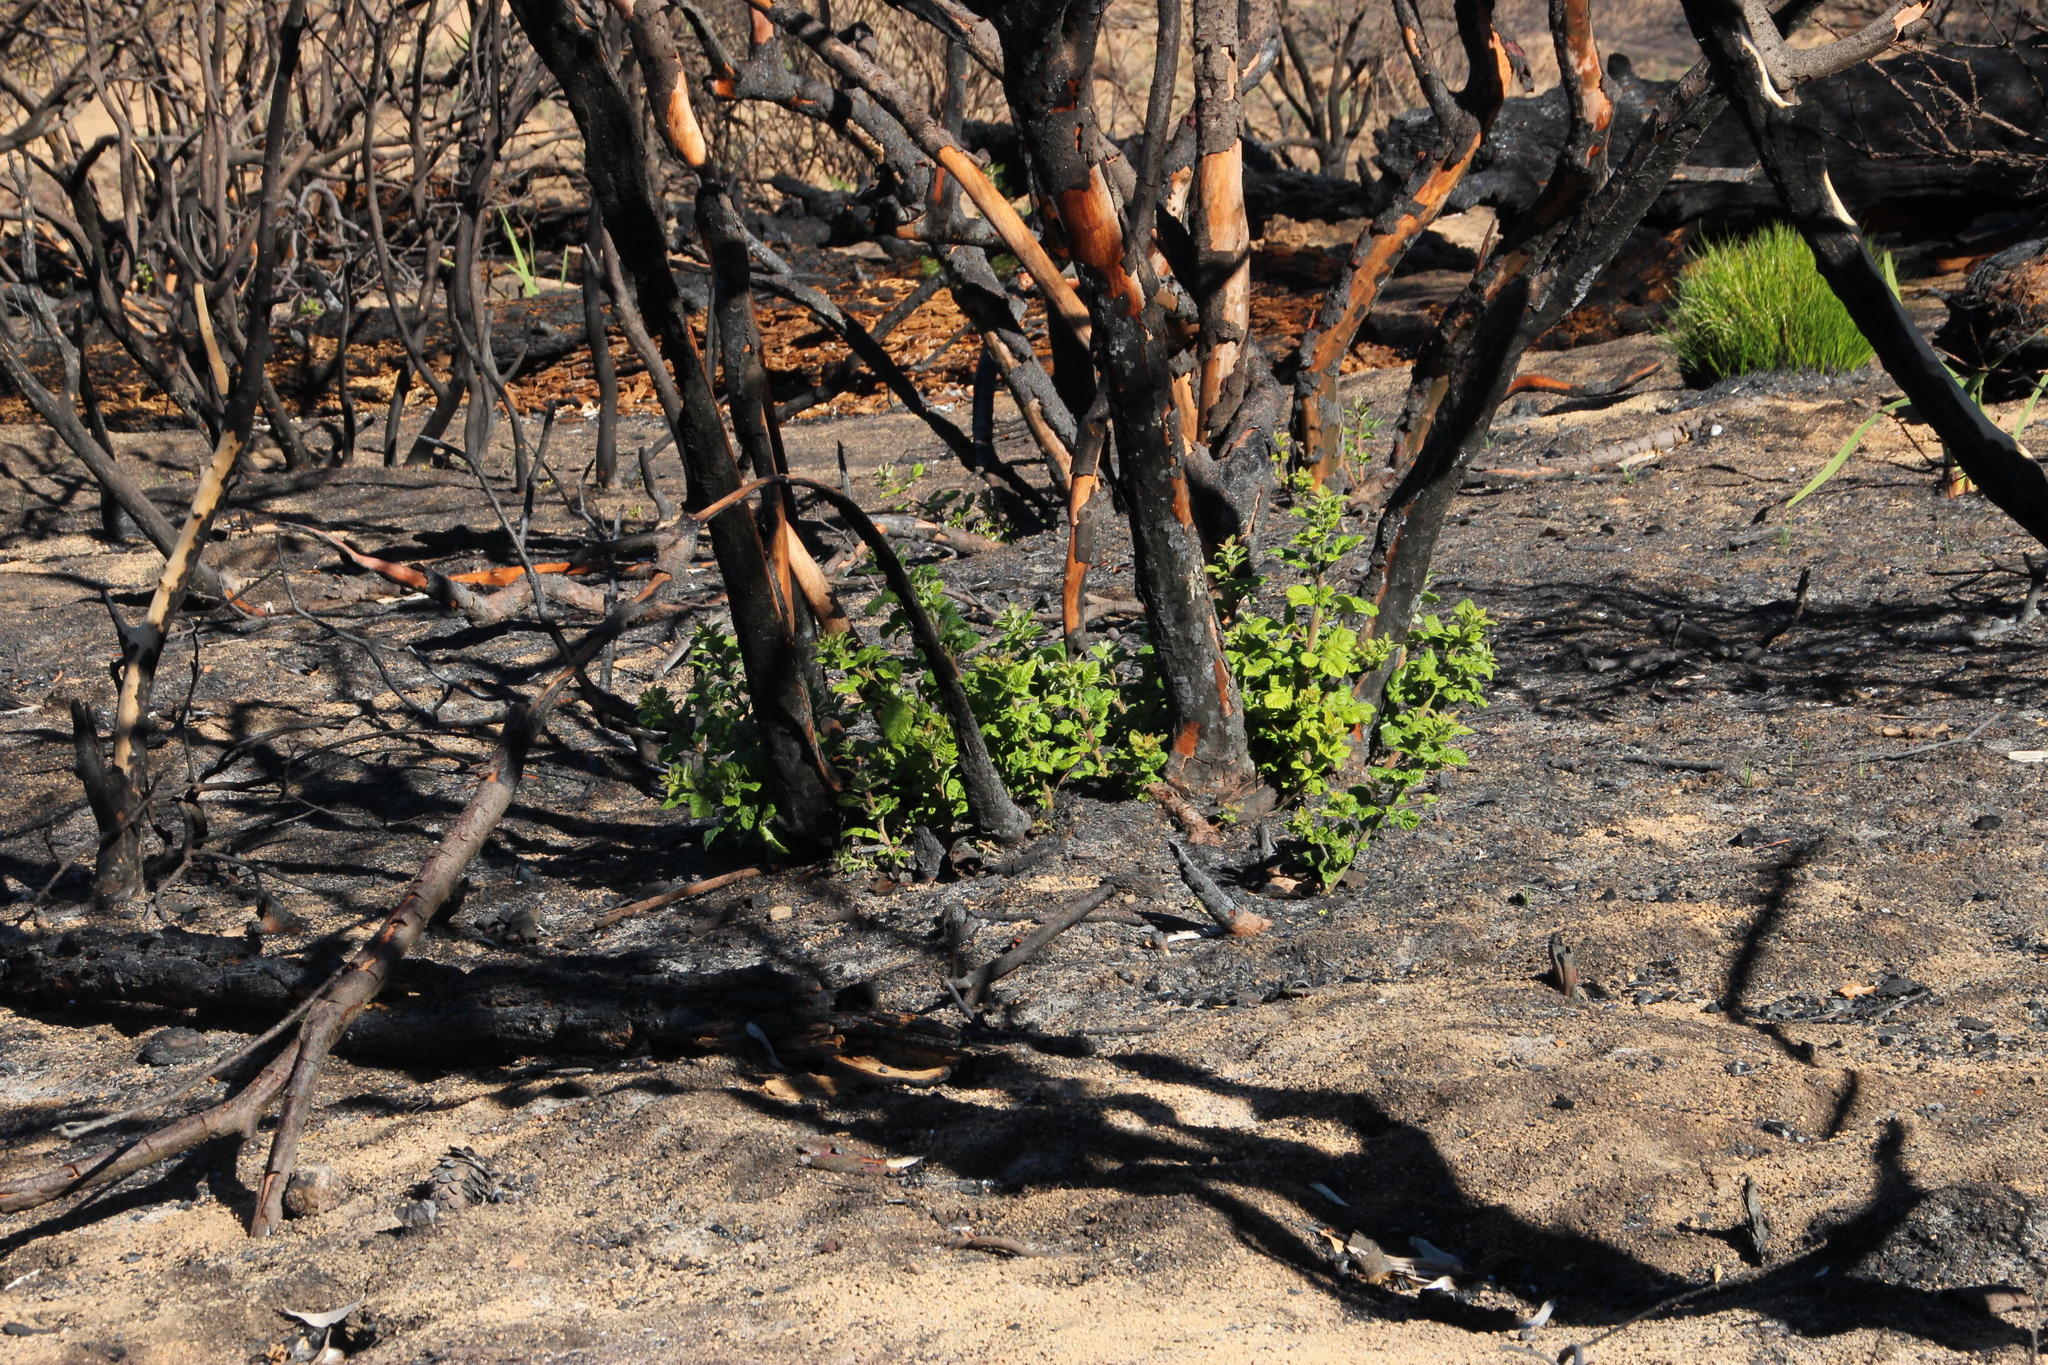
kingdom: Plantae
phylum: Tracheophyta
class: Magnoliopsida
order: Sapindales
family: Anacardiaceae
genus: Searsia
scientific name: Searsia tomentosa
